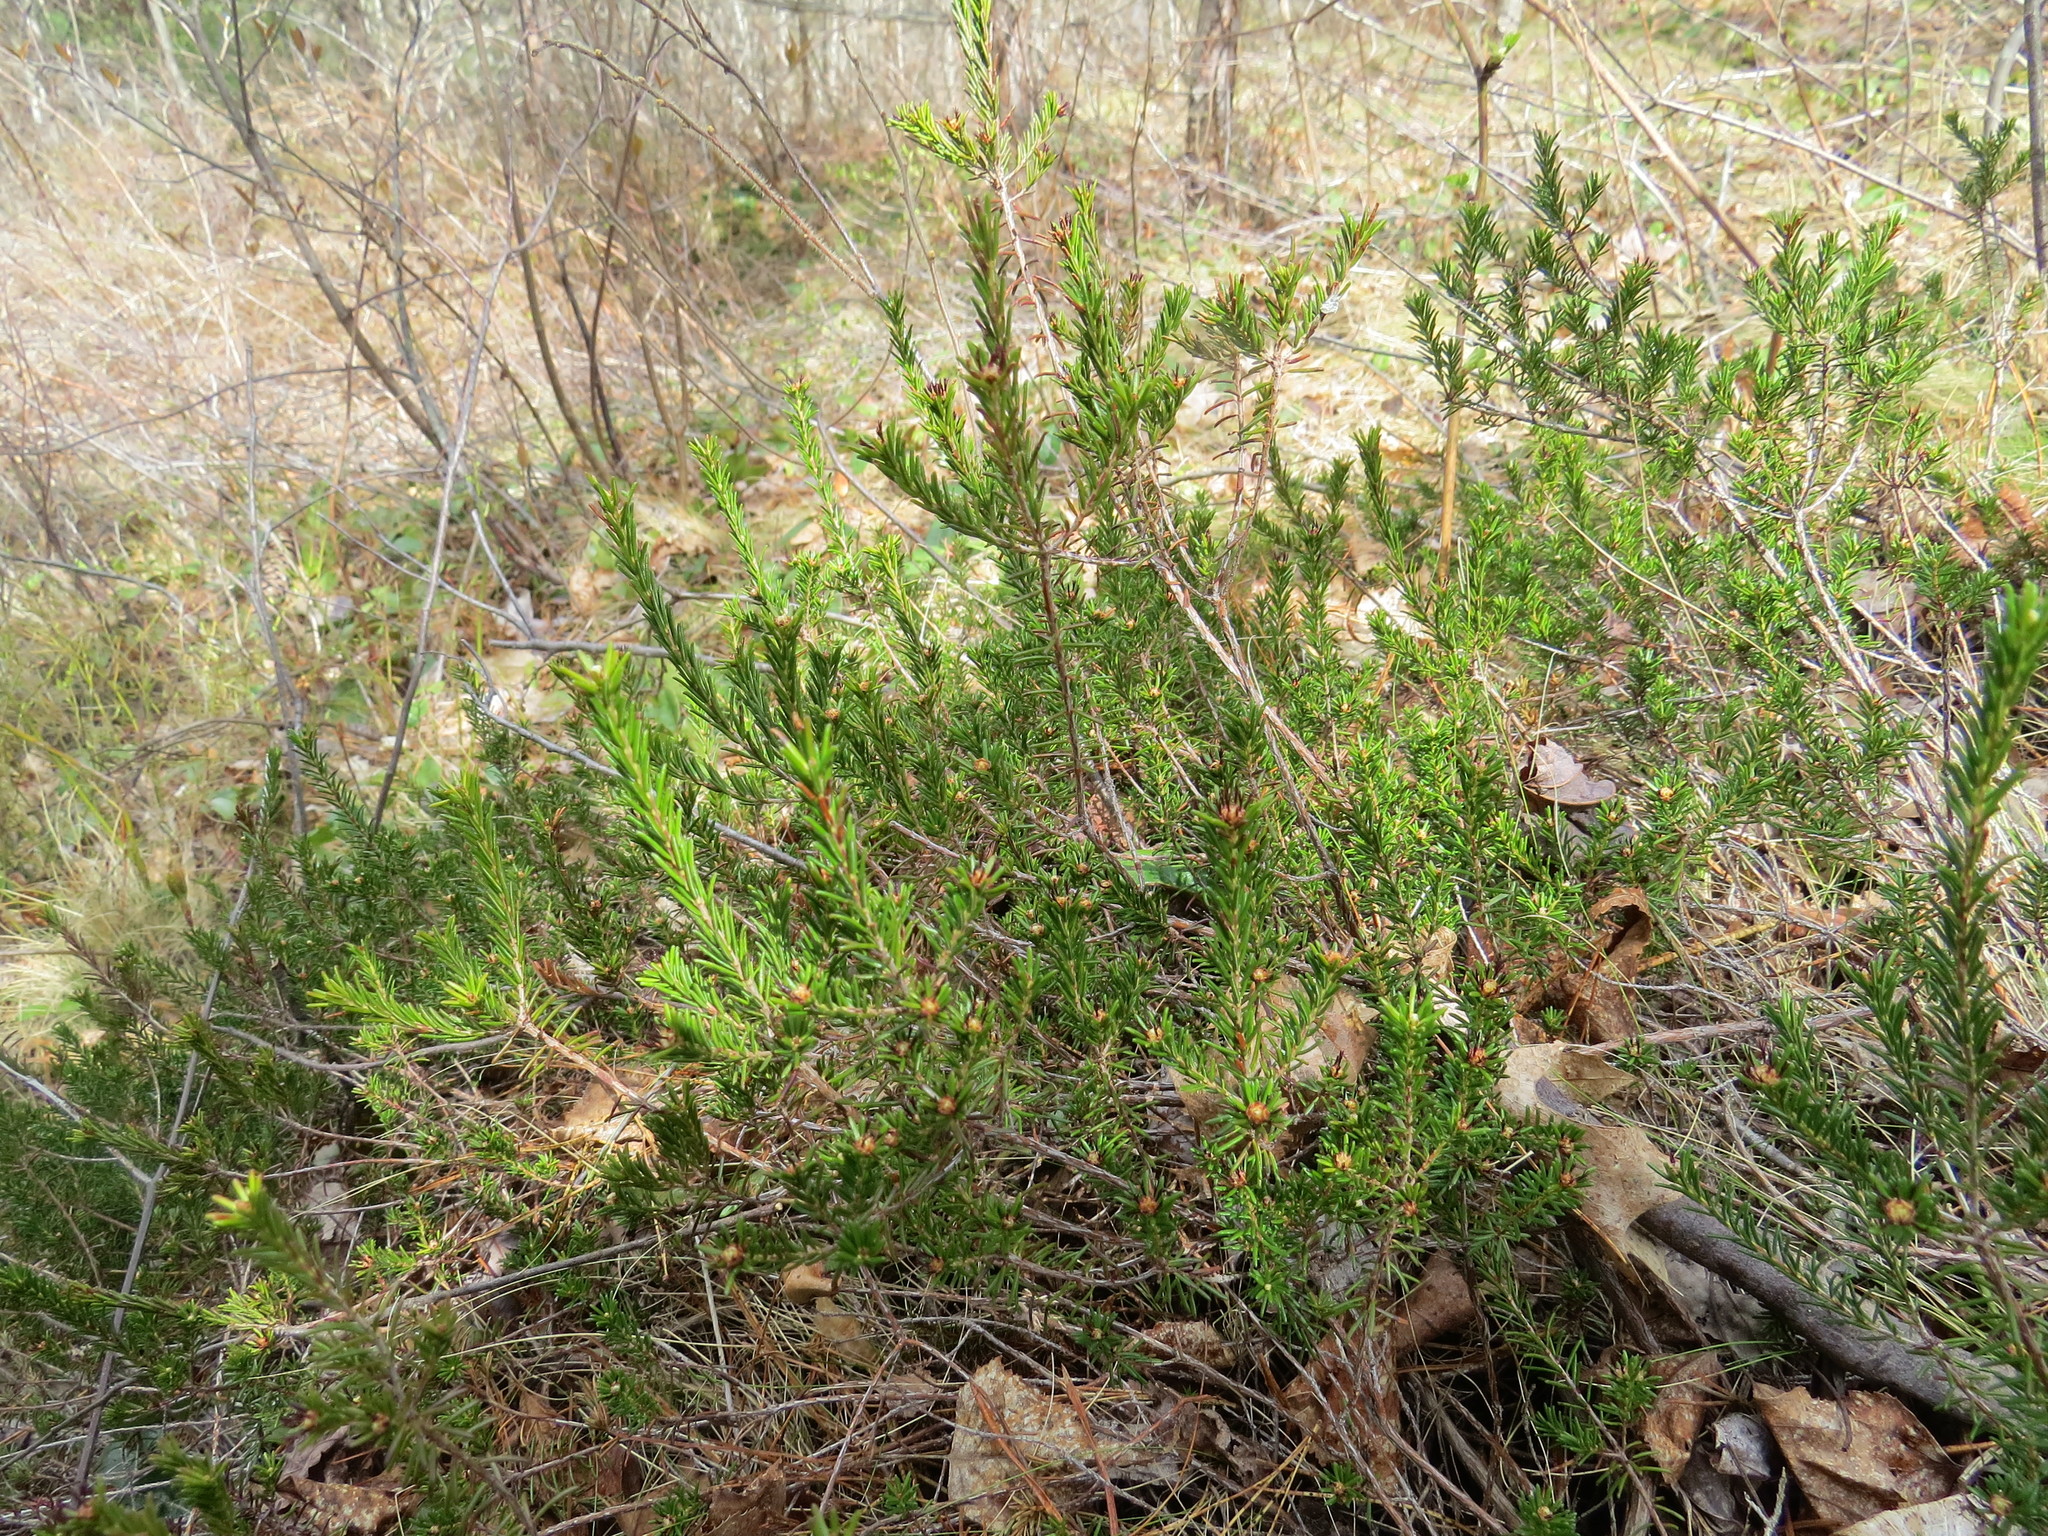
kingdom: Plantae
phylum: Tracheophyta
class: Magnoliopsida
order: Ericales
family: Ericaceae
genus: Corema
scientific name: Corema conradii
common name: Broom-crowberry
